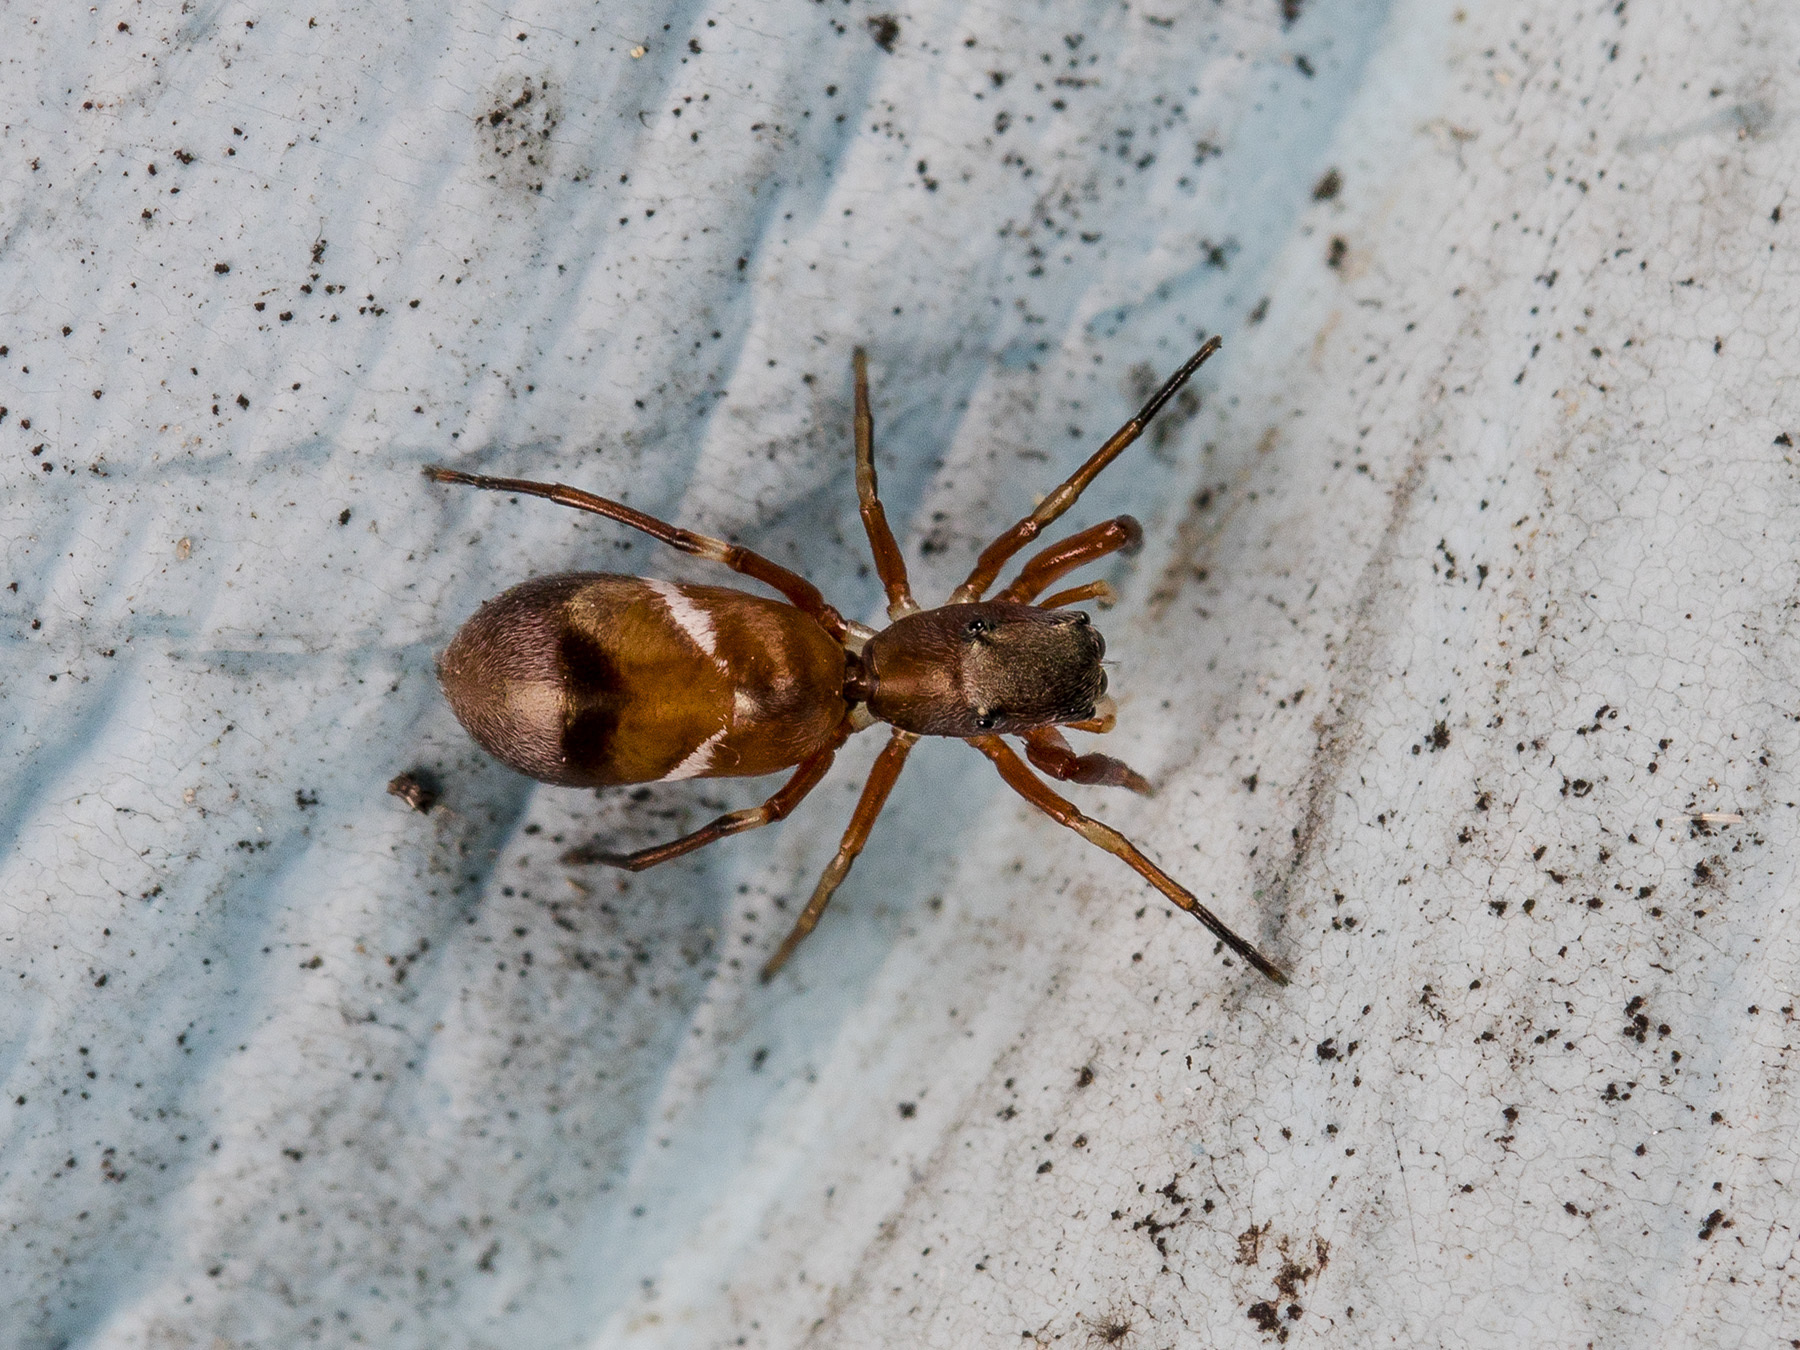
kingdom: Animalia
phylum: Arthropoda
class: Arachnida
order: Araneae
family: Salticidae
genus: Synageles
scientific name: Synageles subcingulatus
